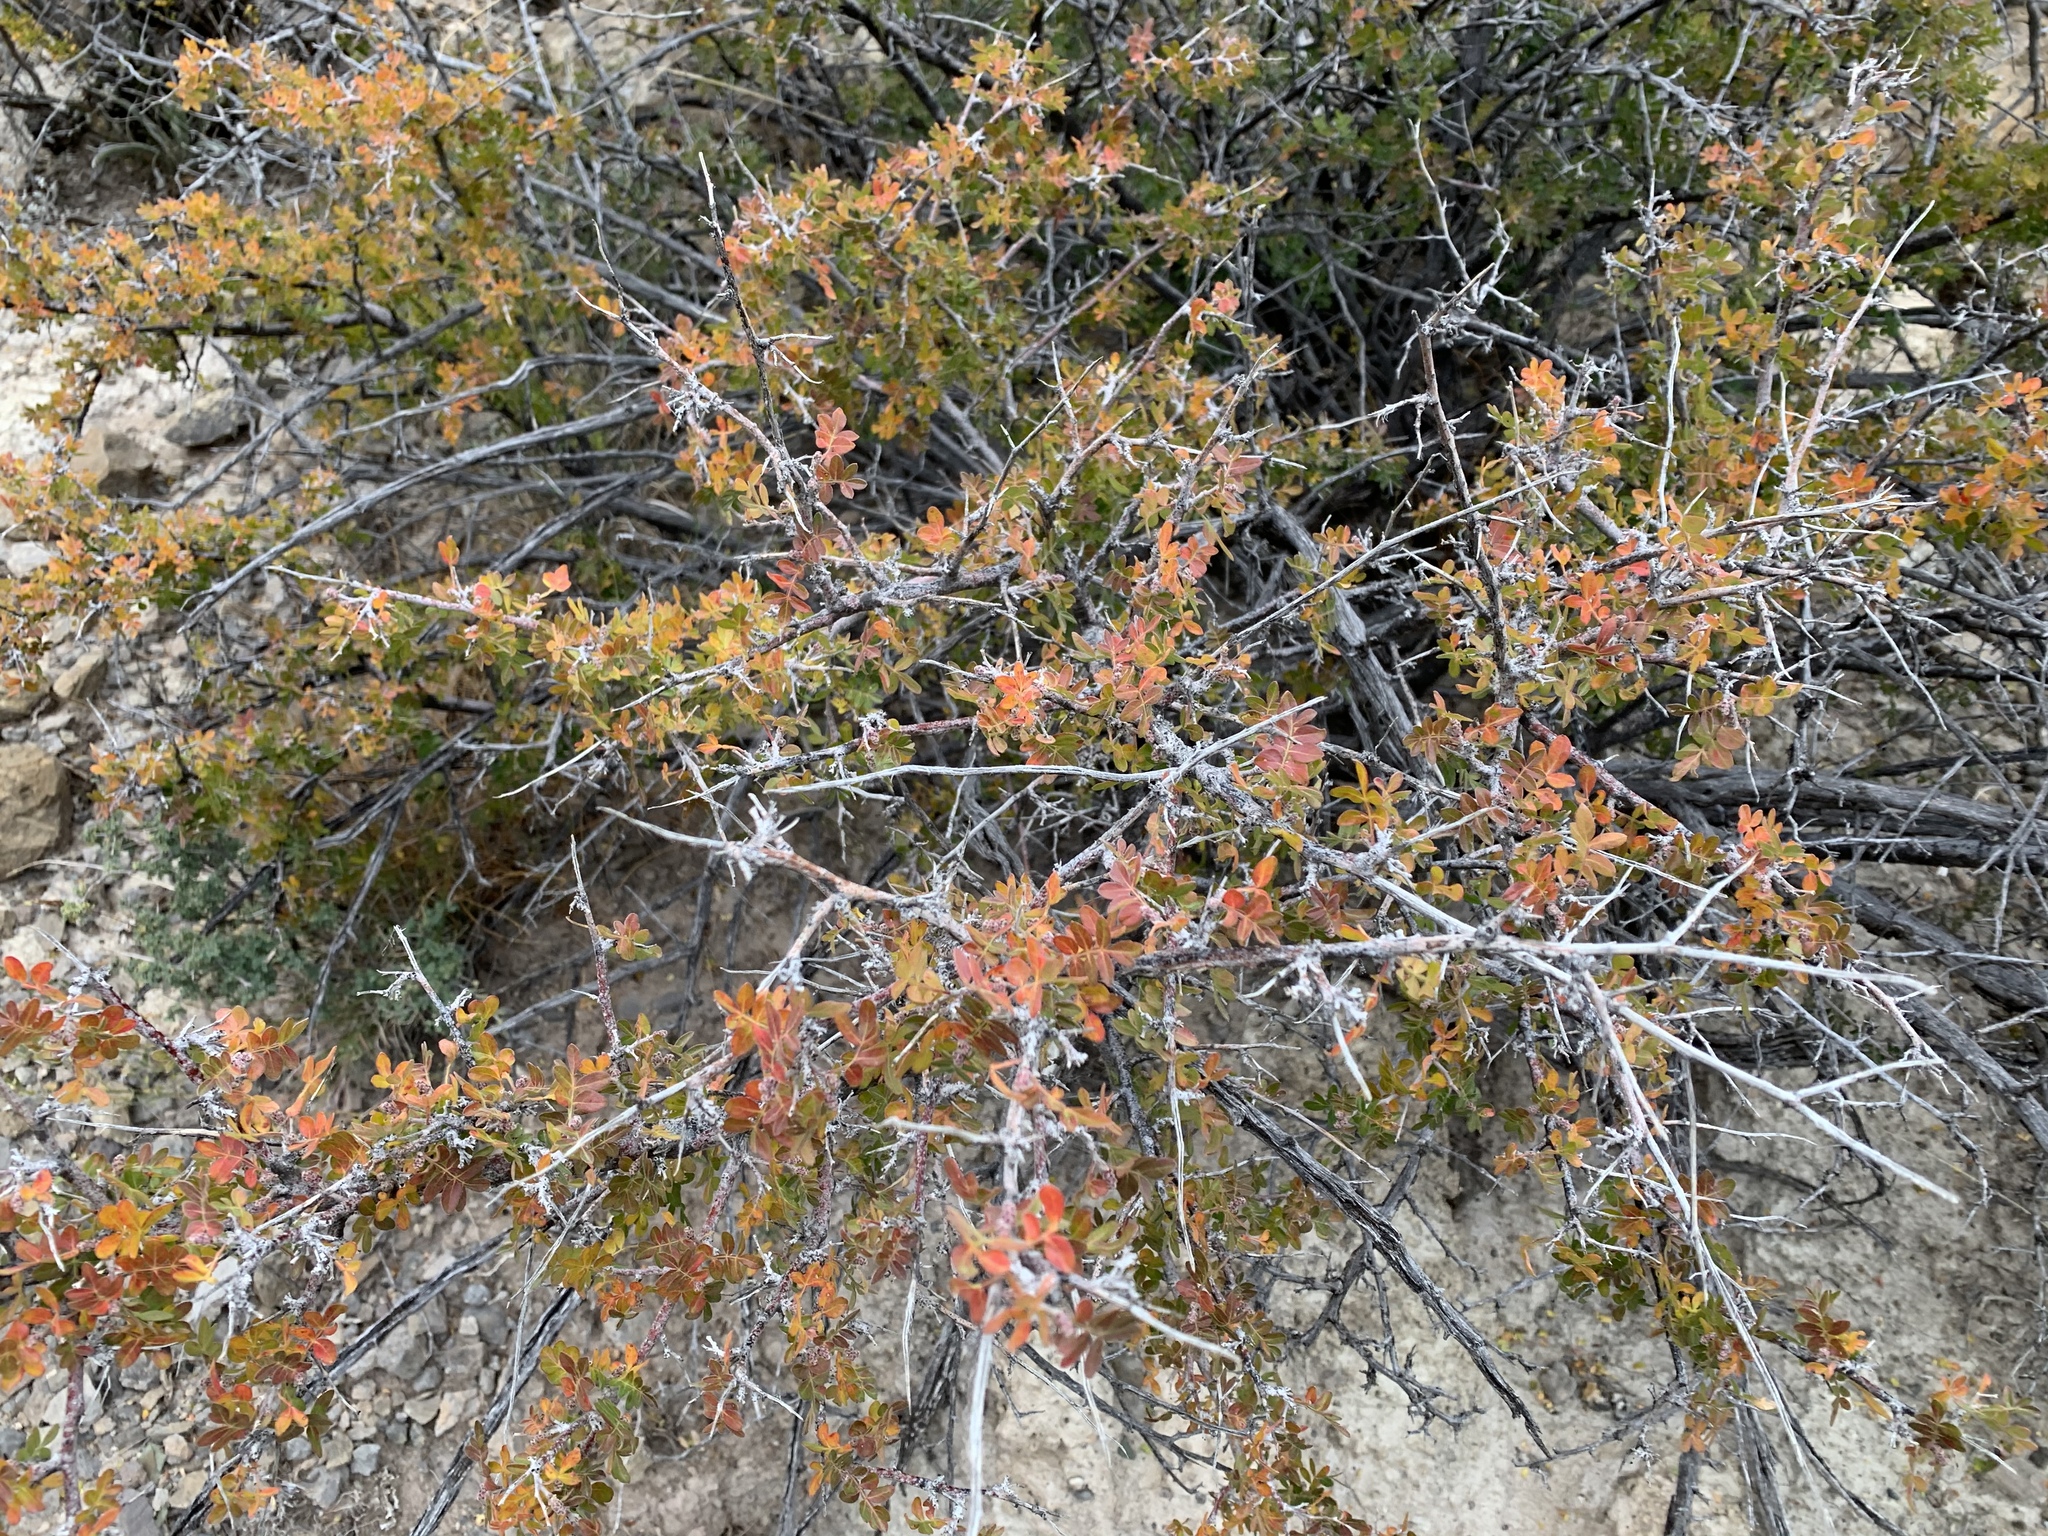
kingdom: Plantae
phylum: Tracheophyta
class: Magnoliopsida
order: Sapindales
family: Anacardiaceae
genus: Rhus
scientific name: Rhus microphylla
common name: Desert sumac
